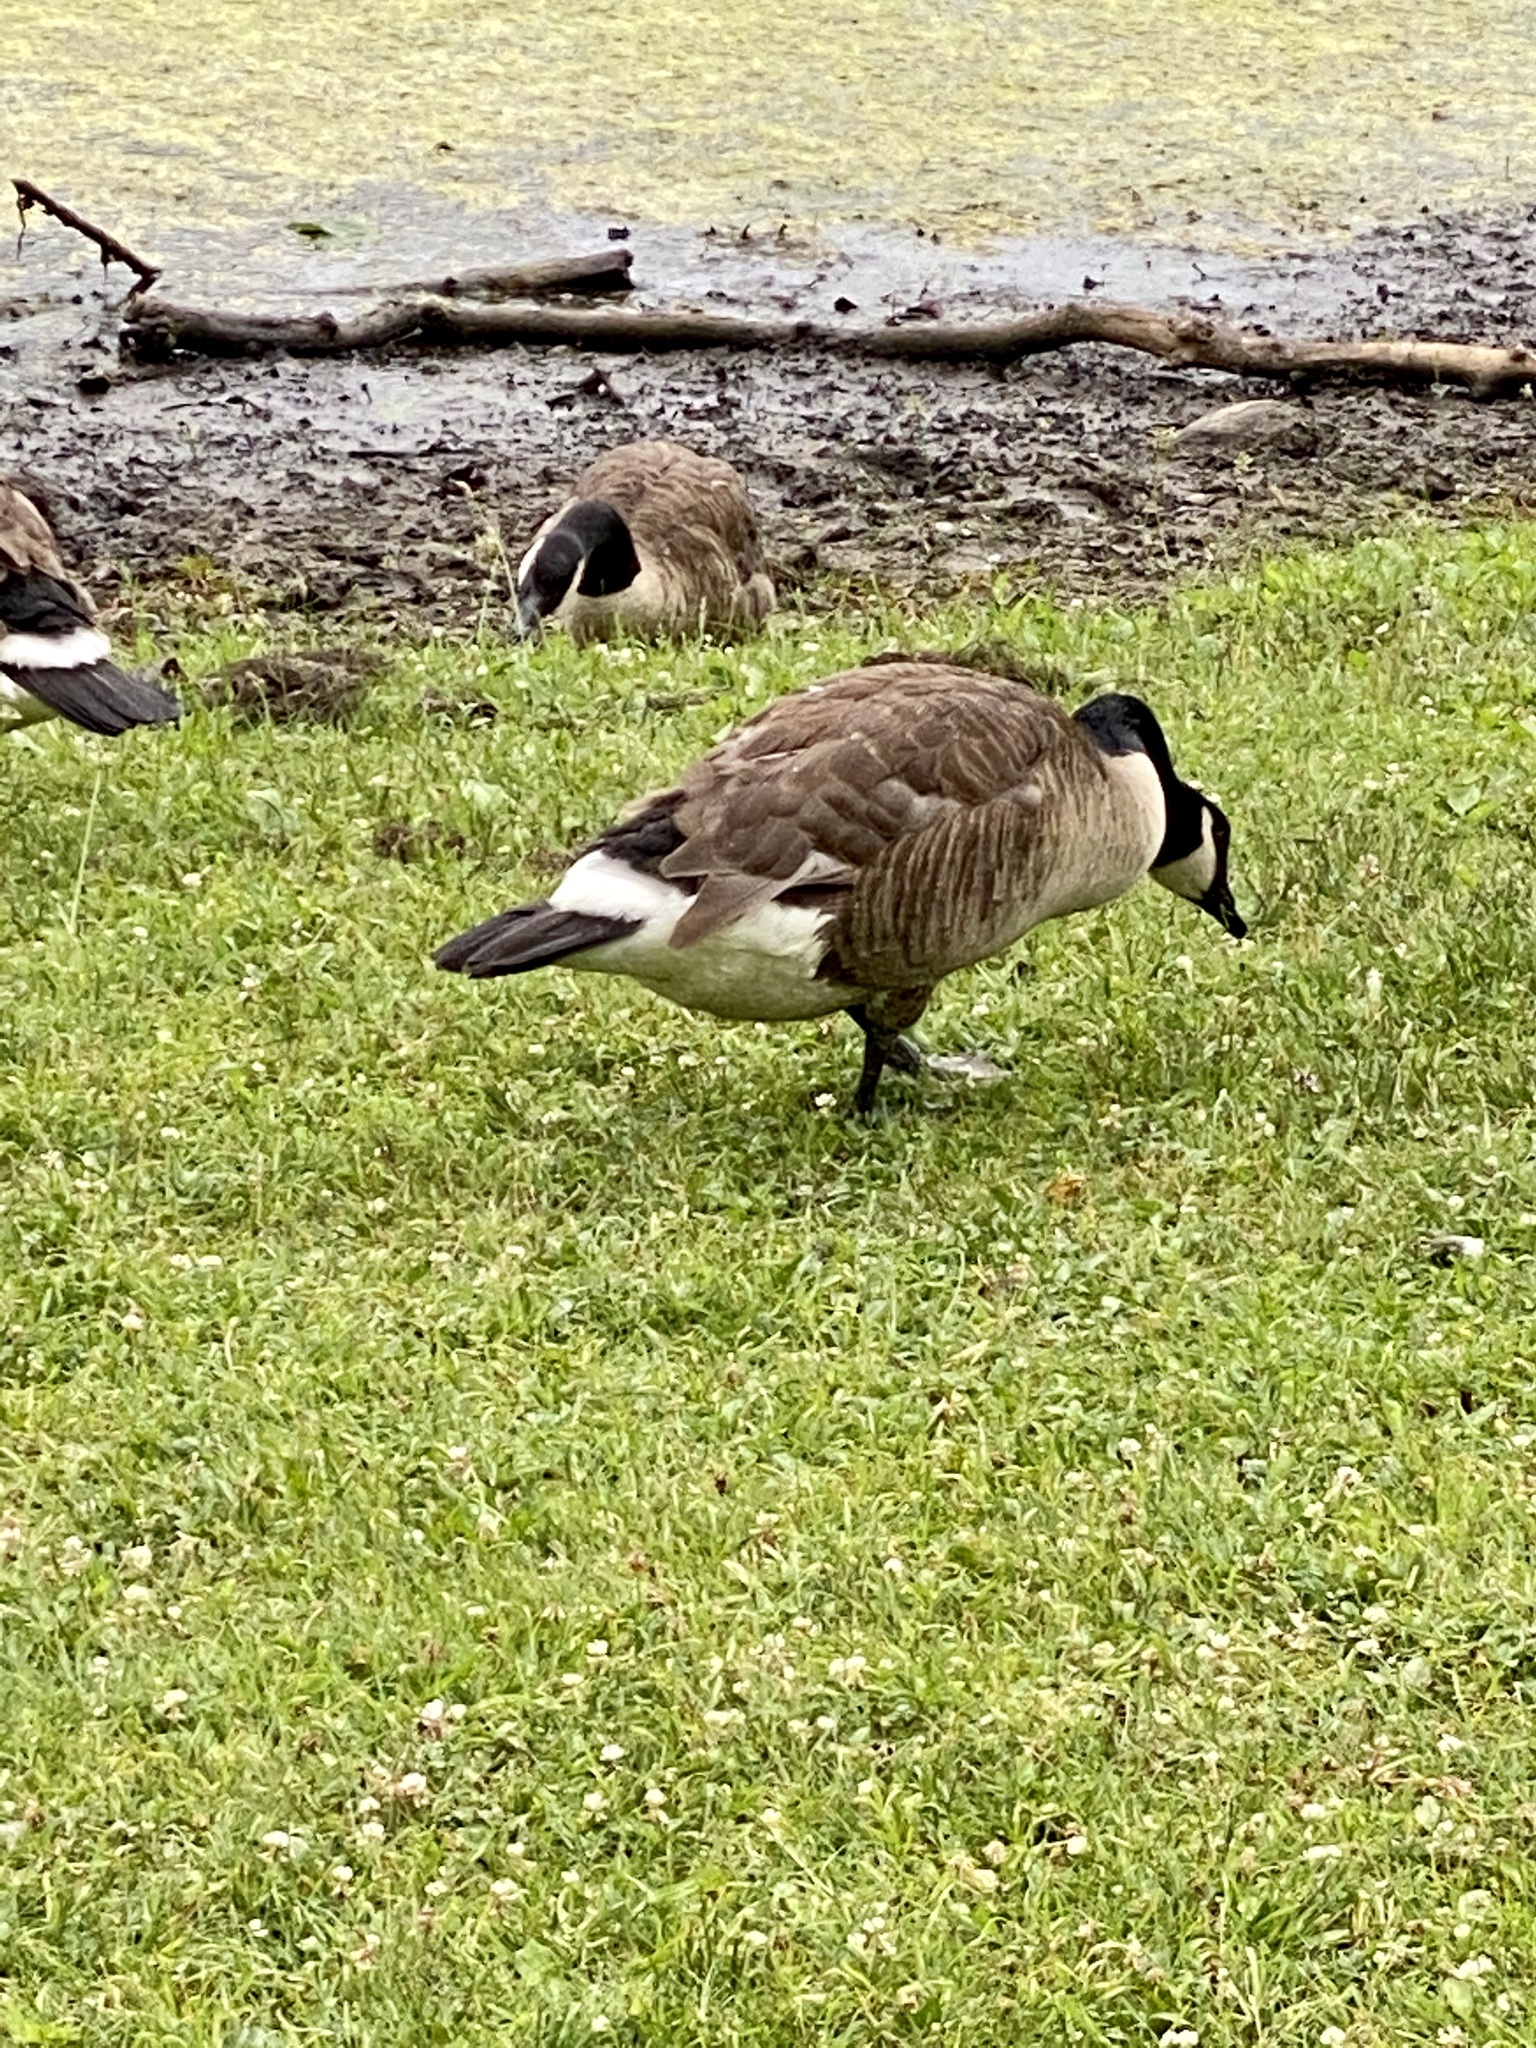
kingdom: Animalia
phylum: Chordata
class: Aves
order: Anseriformes
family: Anatidae
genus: Branta
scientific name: Branta canadensis
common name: Canada goose
